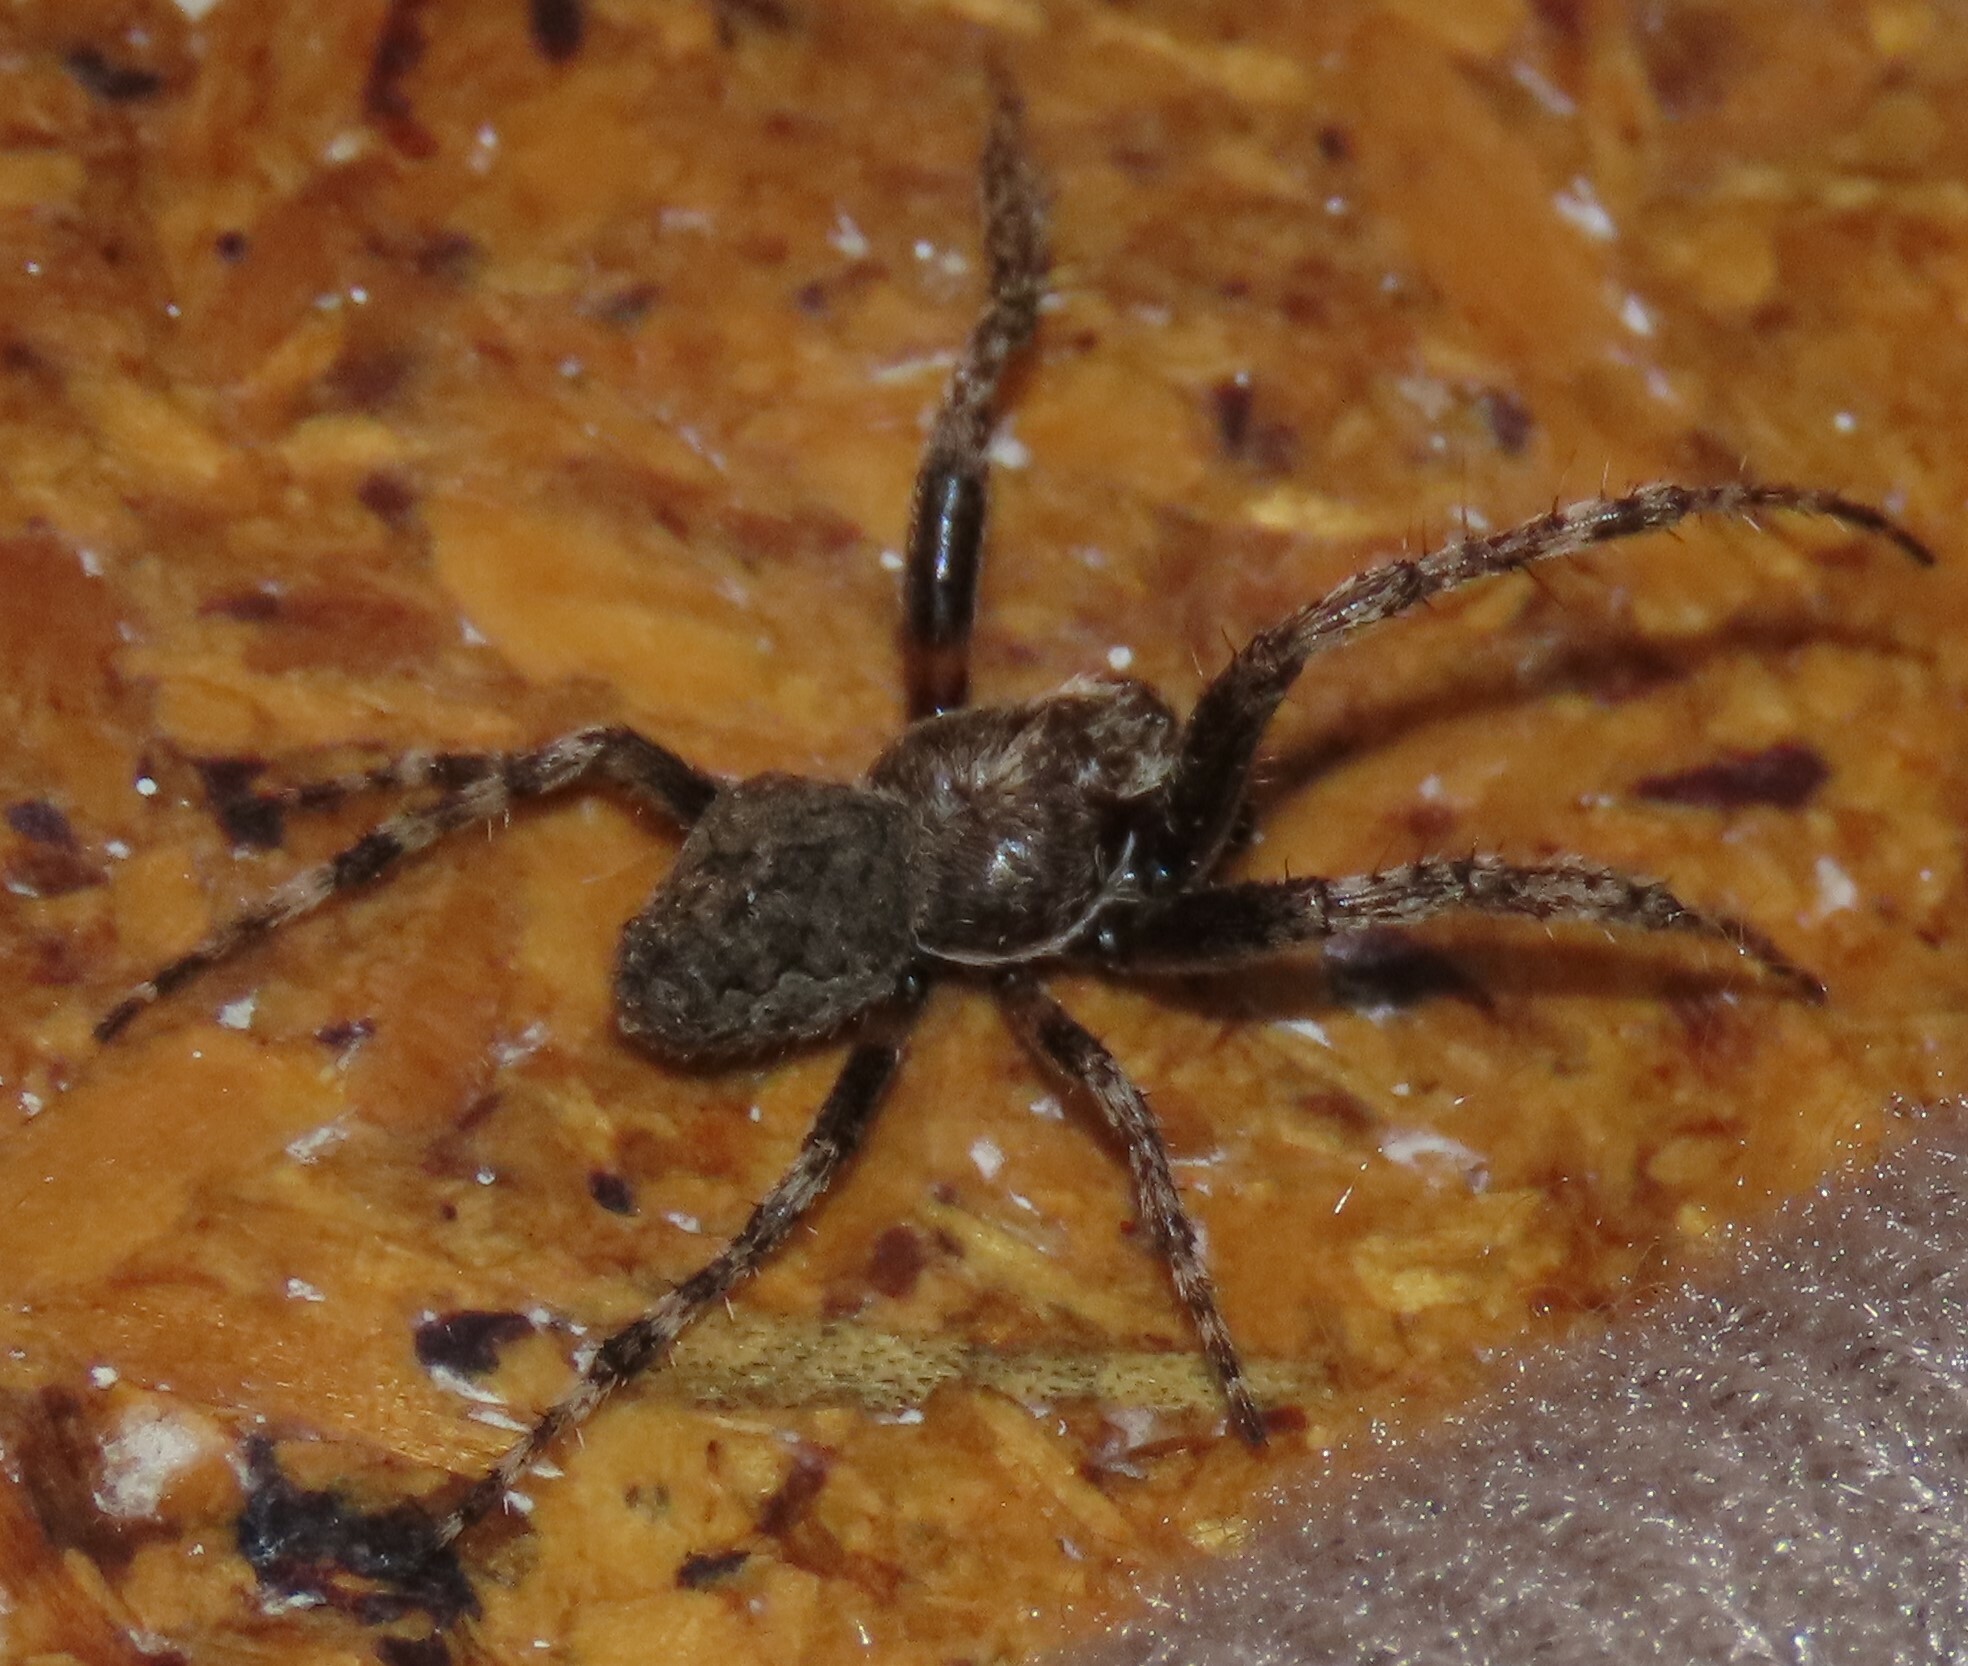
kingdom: Animalia
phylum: Arthropoda
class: Arachnida
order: Araneae
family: Araneidae
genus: Eriophora
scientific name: Eriophora pustulosa
